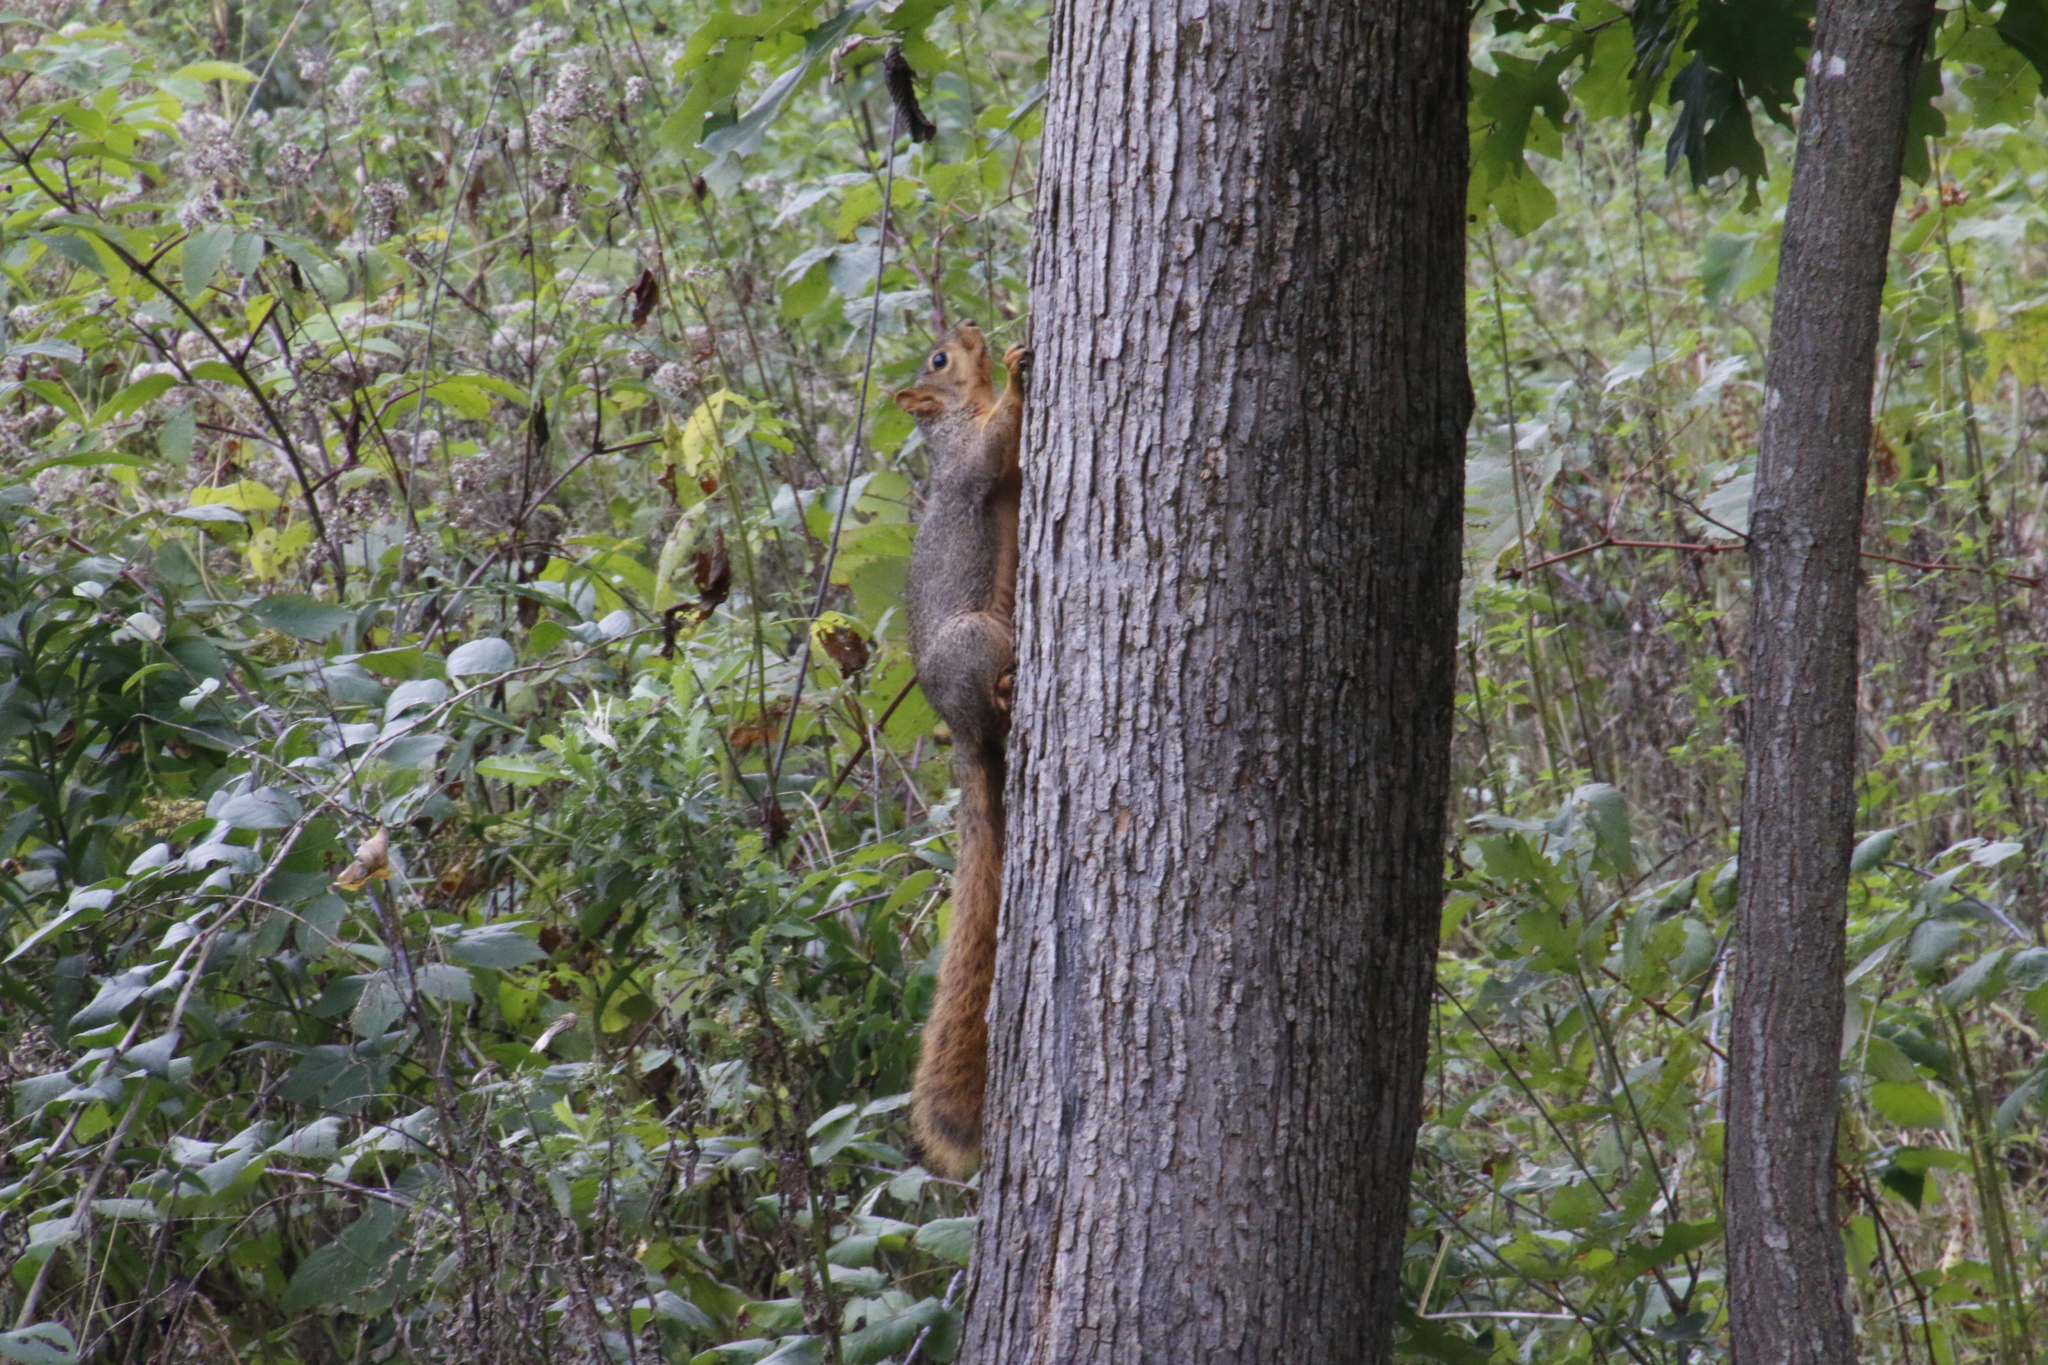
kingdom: Animalia
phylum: Chordata
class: Mammalia
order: Rodentia
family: Sciuridae
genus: Sciurus
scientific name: Sciurus niger
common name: Fox squirrel
